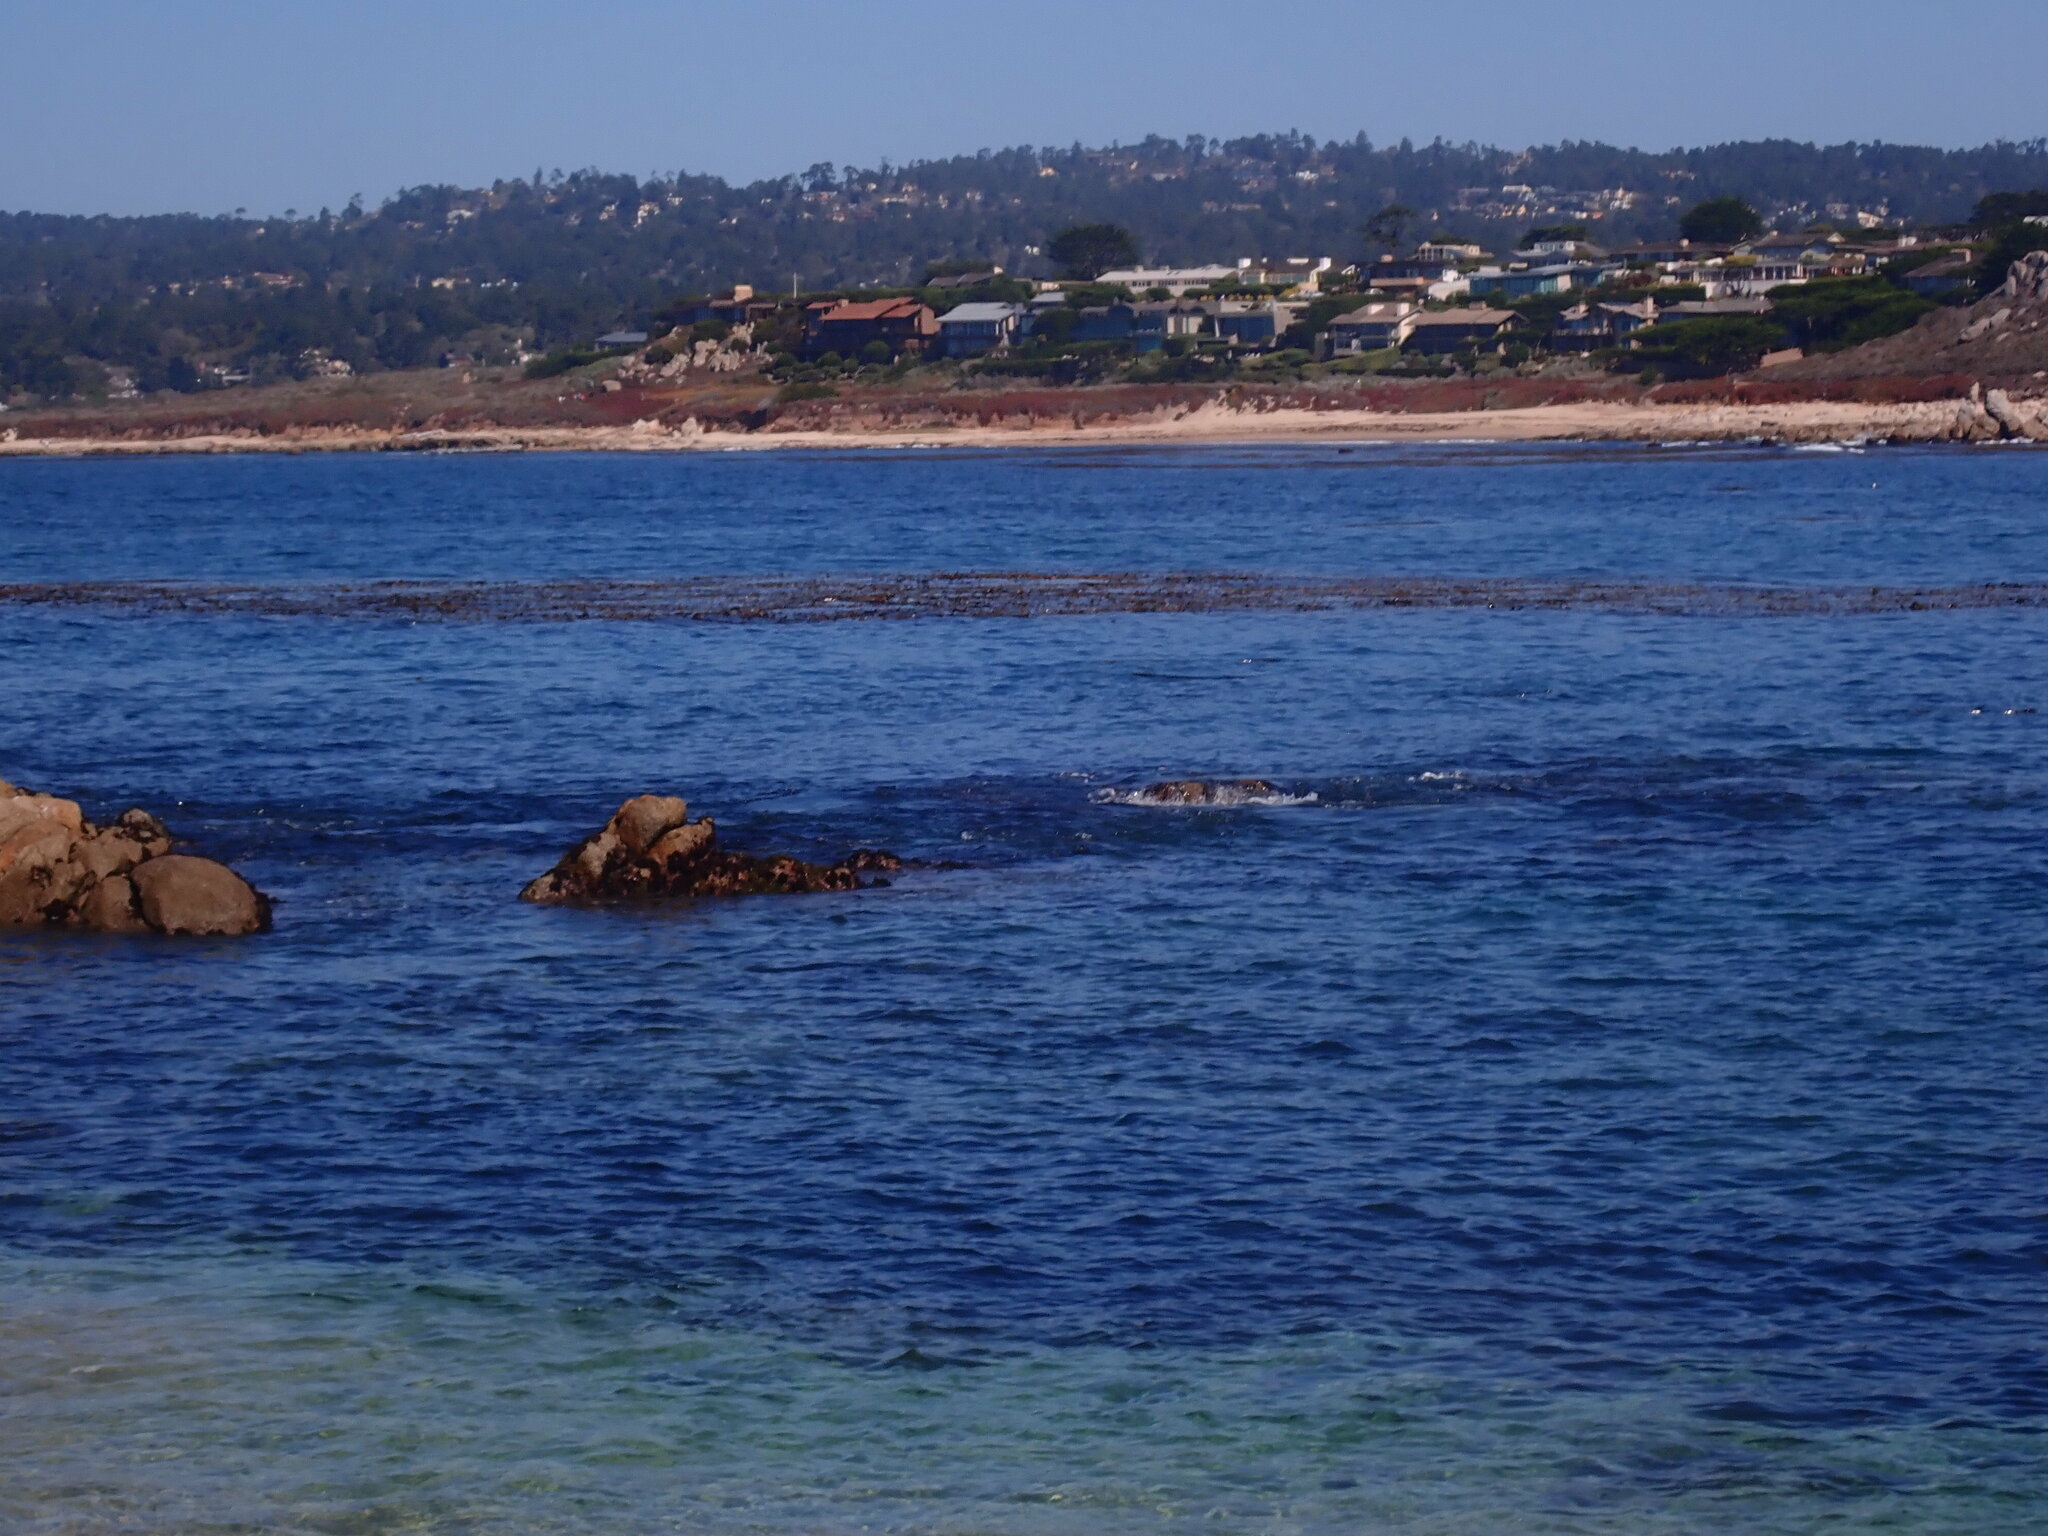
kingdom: Animalia
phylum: Chordata
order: Scorpaeniformes
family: Cottidae
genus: Scorpaenichthys
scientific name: Scorpaenichthys marmoratus
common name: Cabezon
